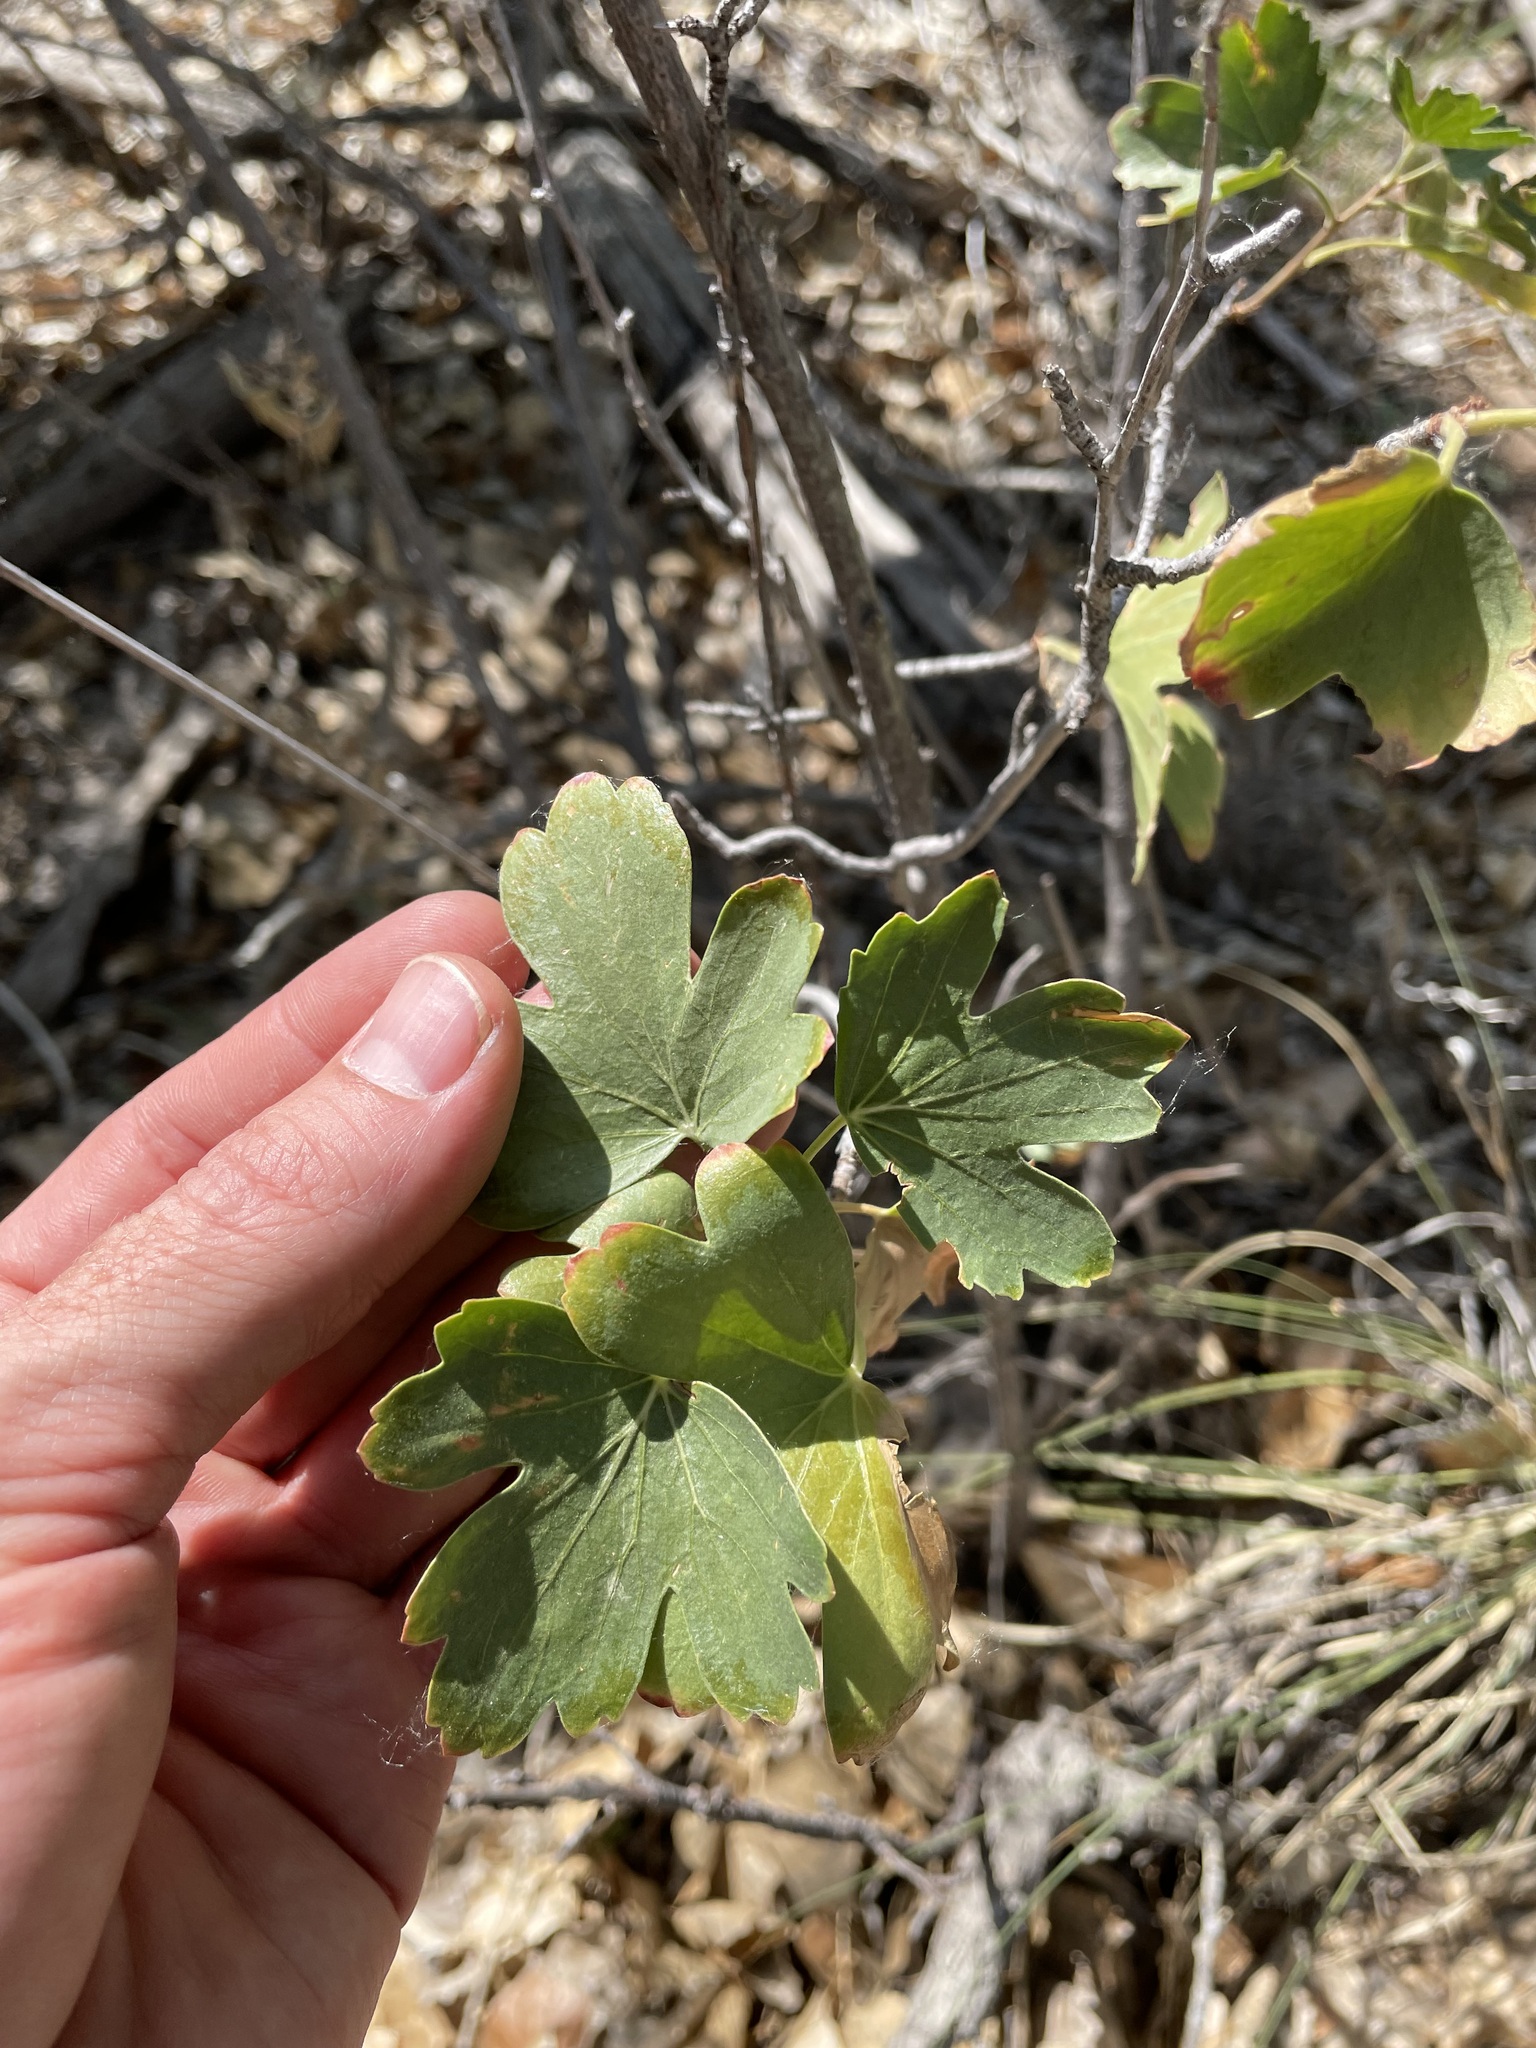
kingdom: Plantae
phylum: Tracheophyta
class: Magnoliopsida
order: Saxifragales
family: Grossulariaceae
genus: Ribes
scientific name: Ribes aureum
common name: Golden currant
